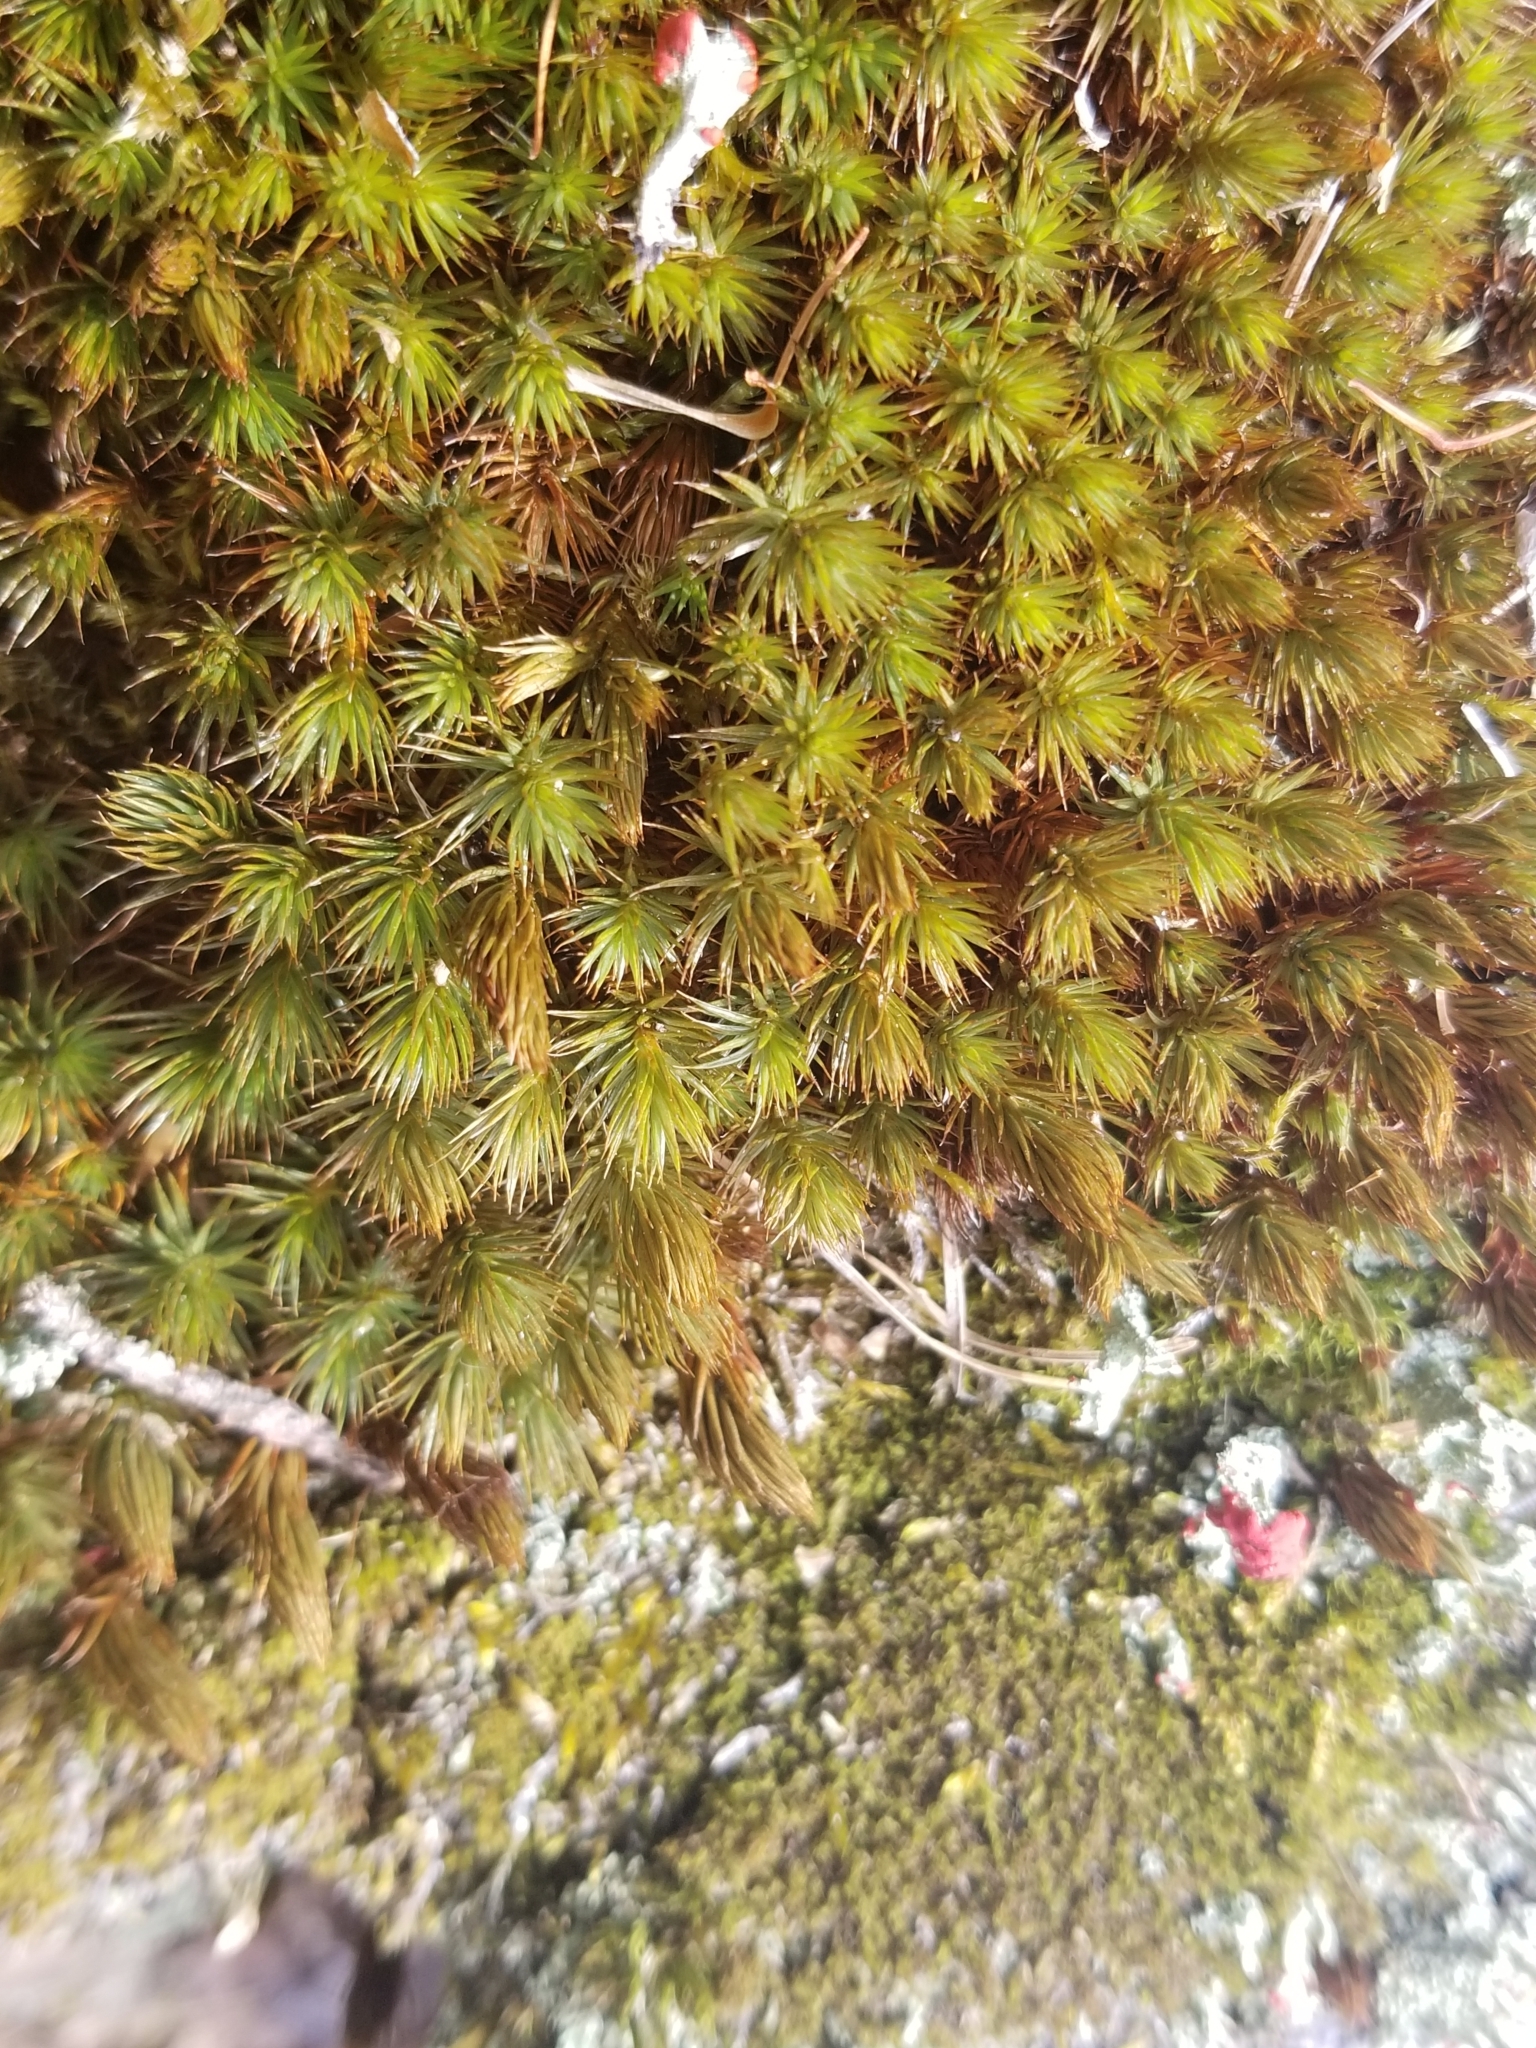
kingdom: Plantae
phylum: Bryophyta
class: Polytrichopsida
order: Polytrichales
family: Polytrichaceae
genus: Polytrichum
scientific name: Polytrichum piliferum
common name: Bristly haircap
